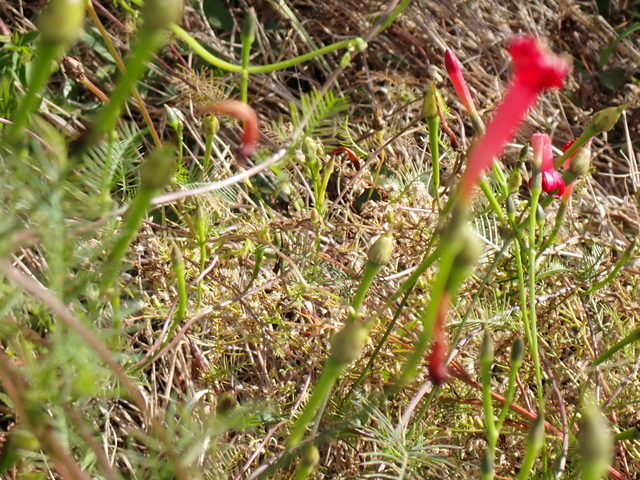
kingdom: Plantae
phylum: Tracheophyta
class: Magnoliopsida
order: Solanales
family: Convolvulaceae
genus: Ipomoea
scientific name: Ipomoea quamoclit
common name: Cypress vine
